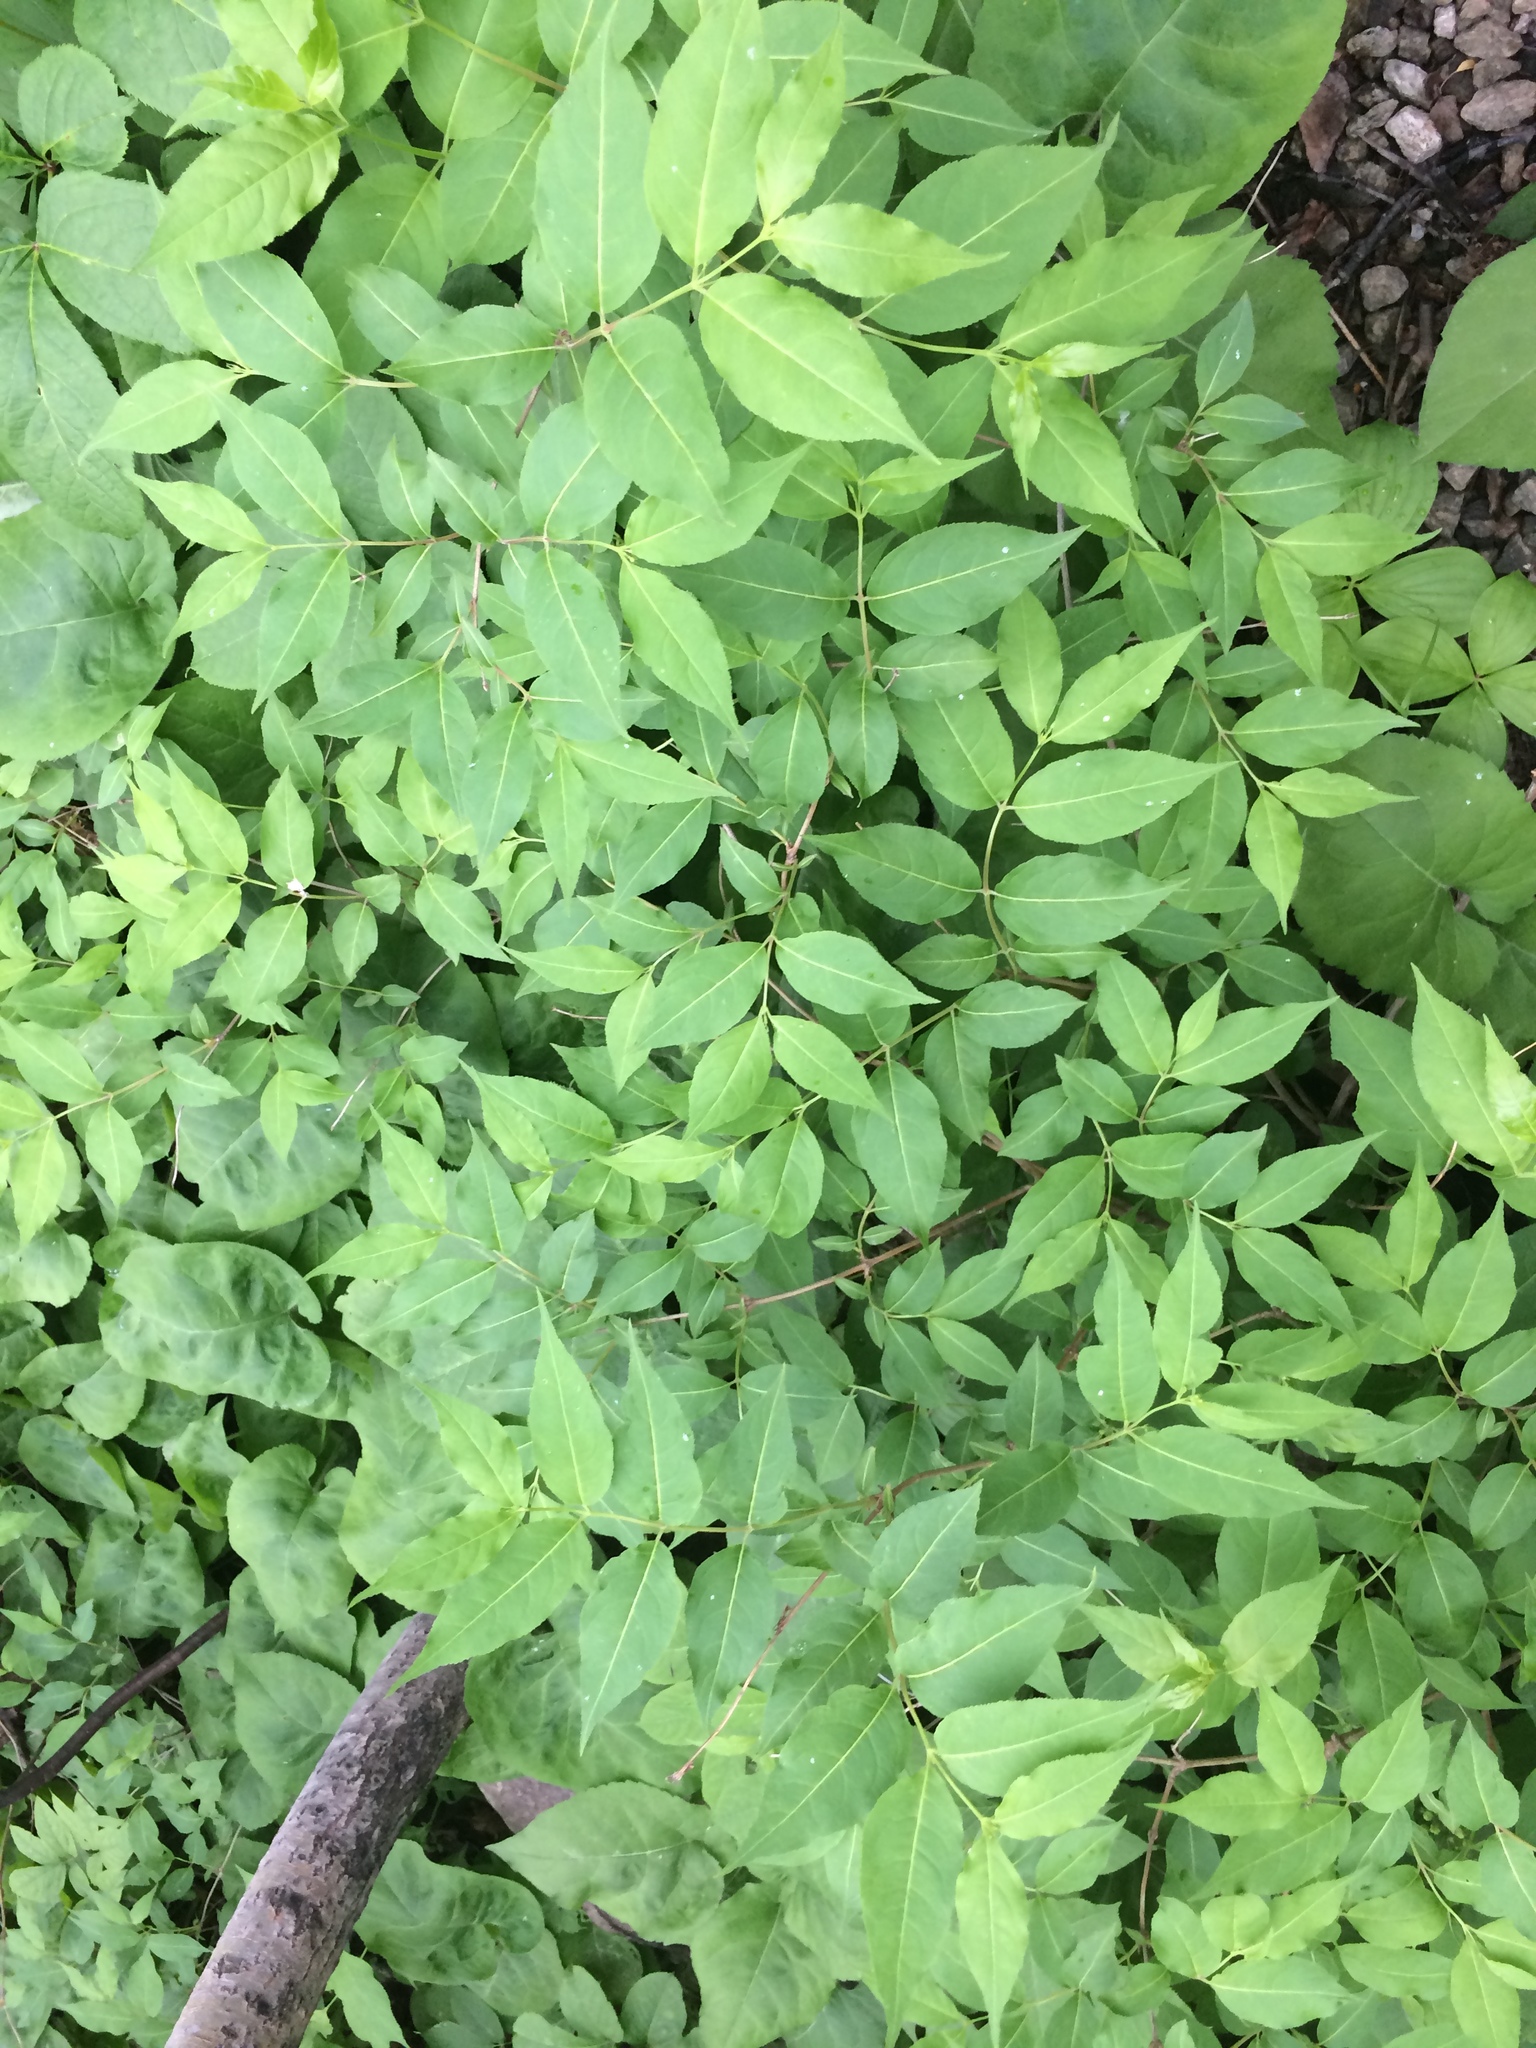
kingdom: Plantae
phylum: Tracheophyta
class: Magnoliopsida
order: Dipsacales
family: Caprifoliaceae
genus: Diervilla
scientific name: Diervilla lonicera
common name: Bush-honeysuckle
